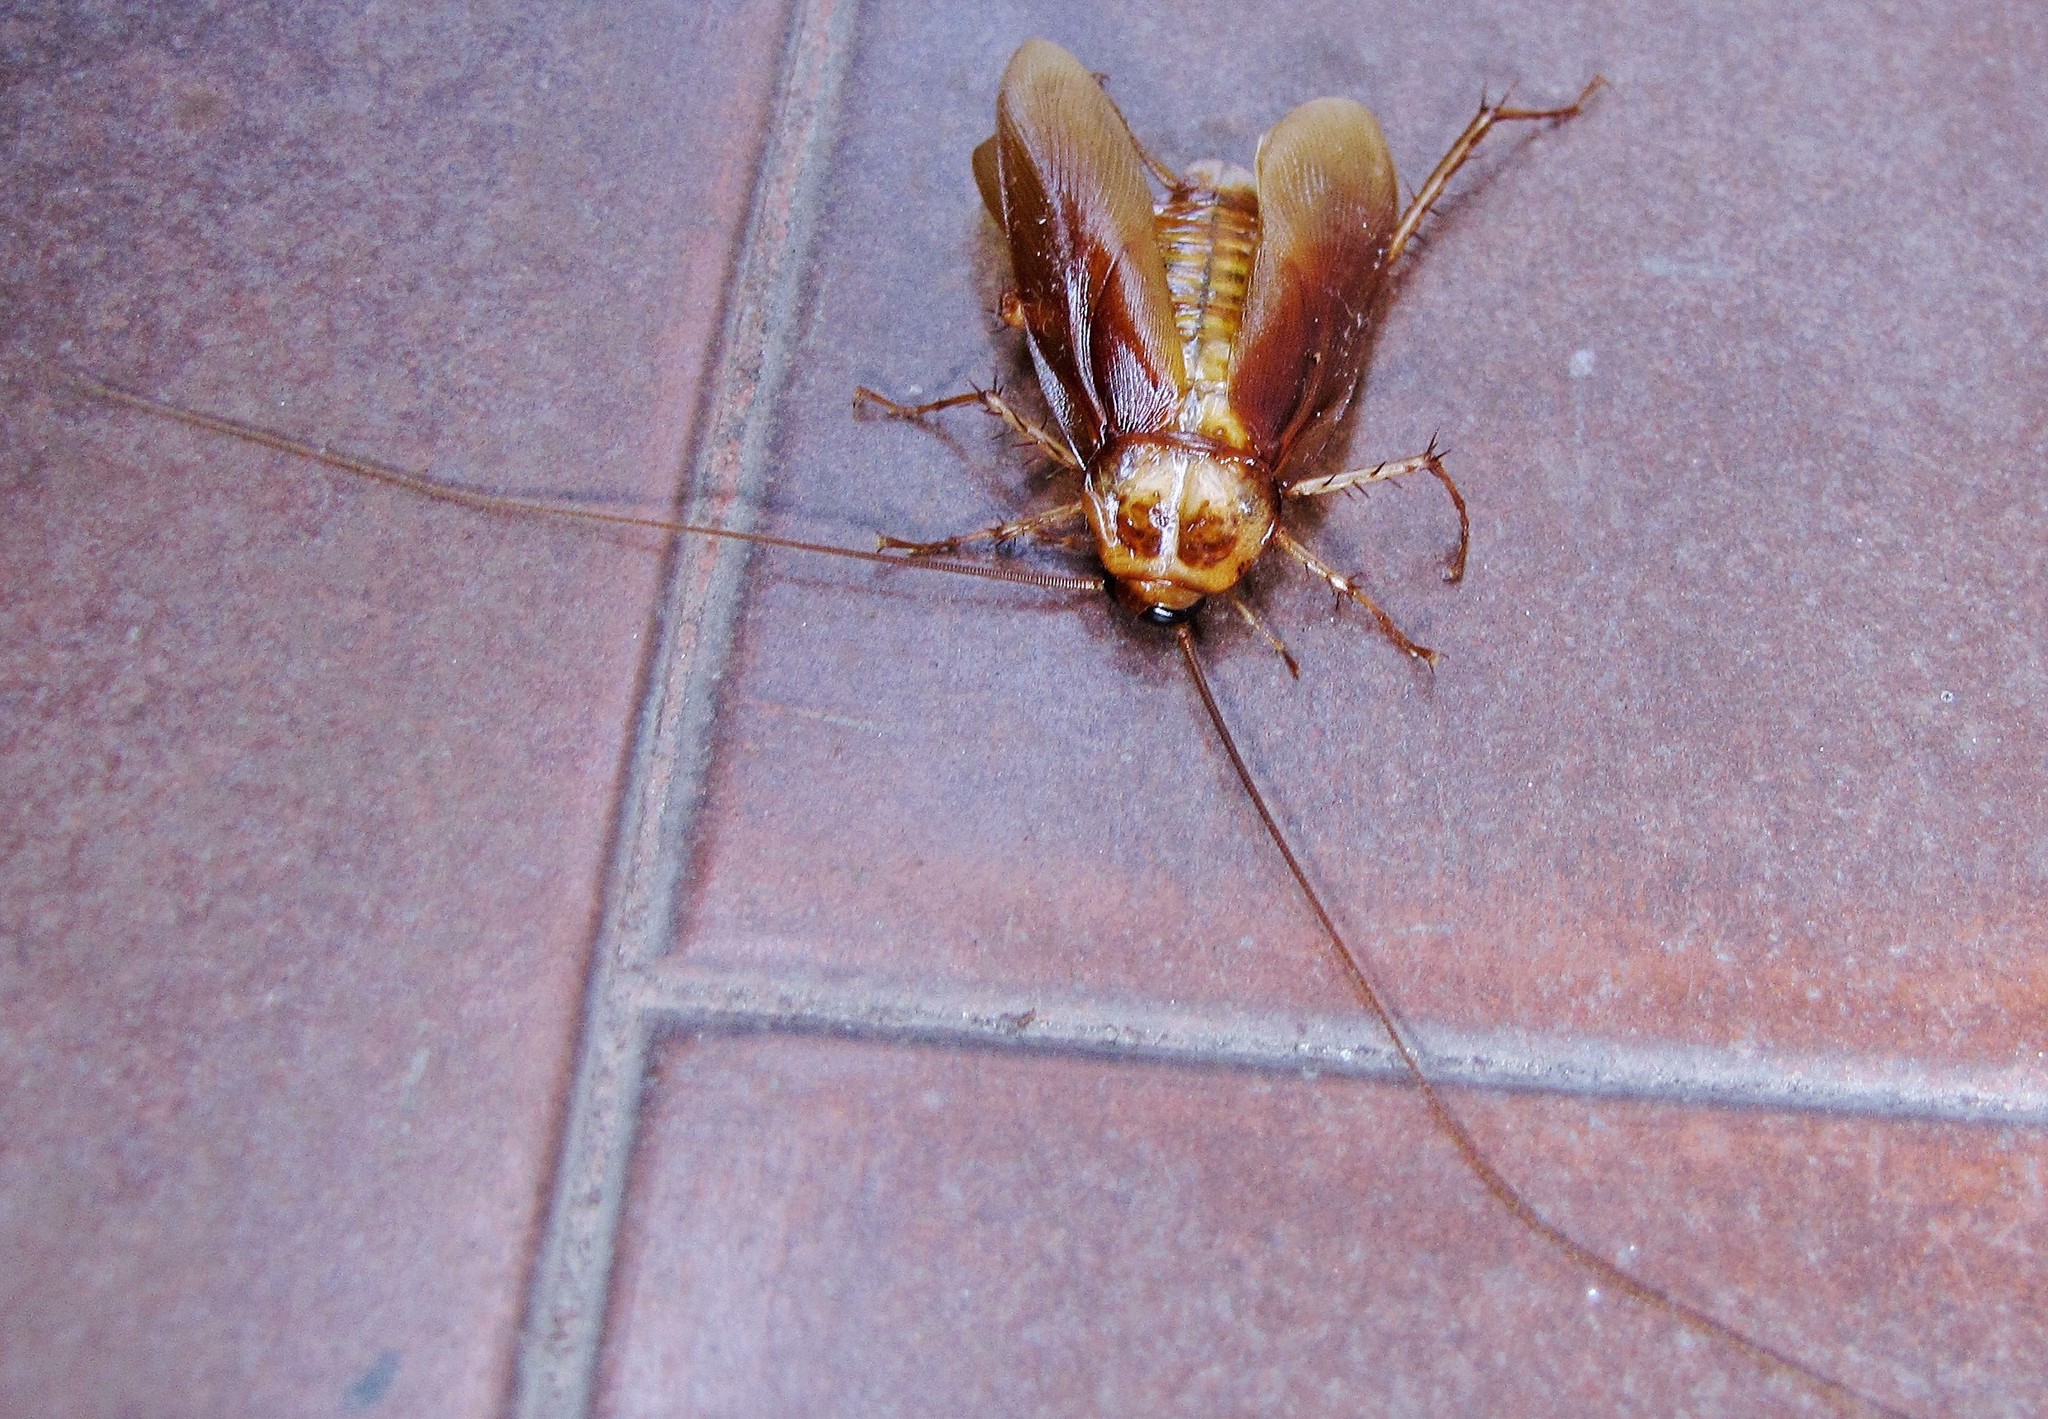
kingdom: Animalia
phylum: Arthropoda
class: Insecta
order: Blattodea
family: Blattidae
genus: Periplaneta
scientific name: Periplaneta americana
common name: American cockroach
